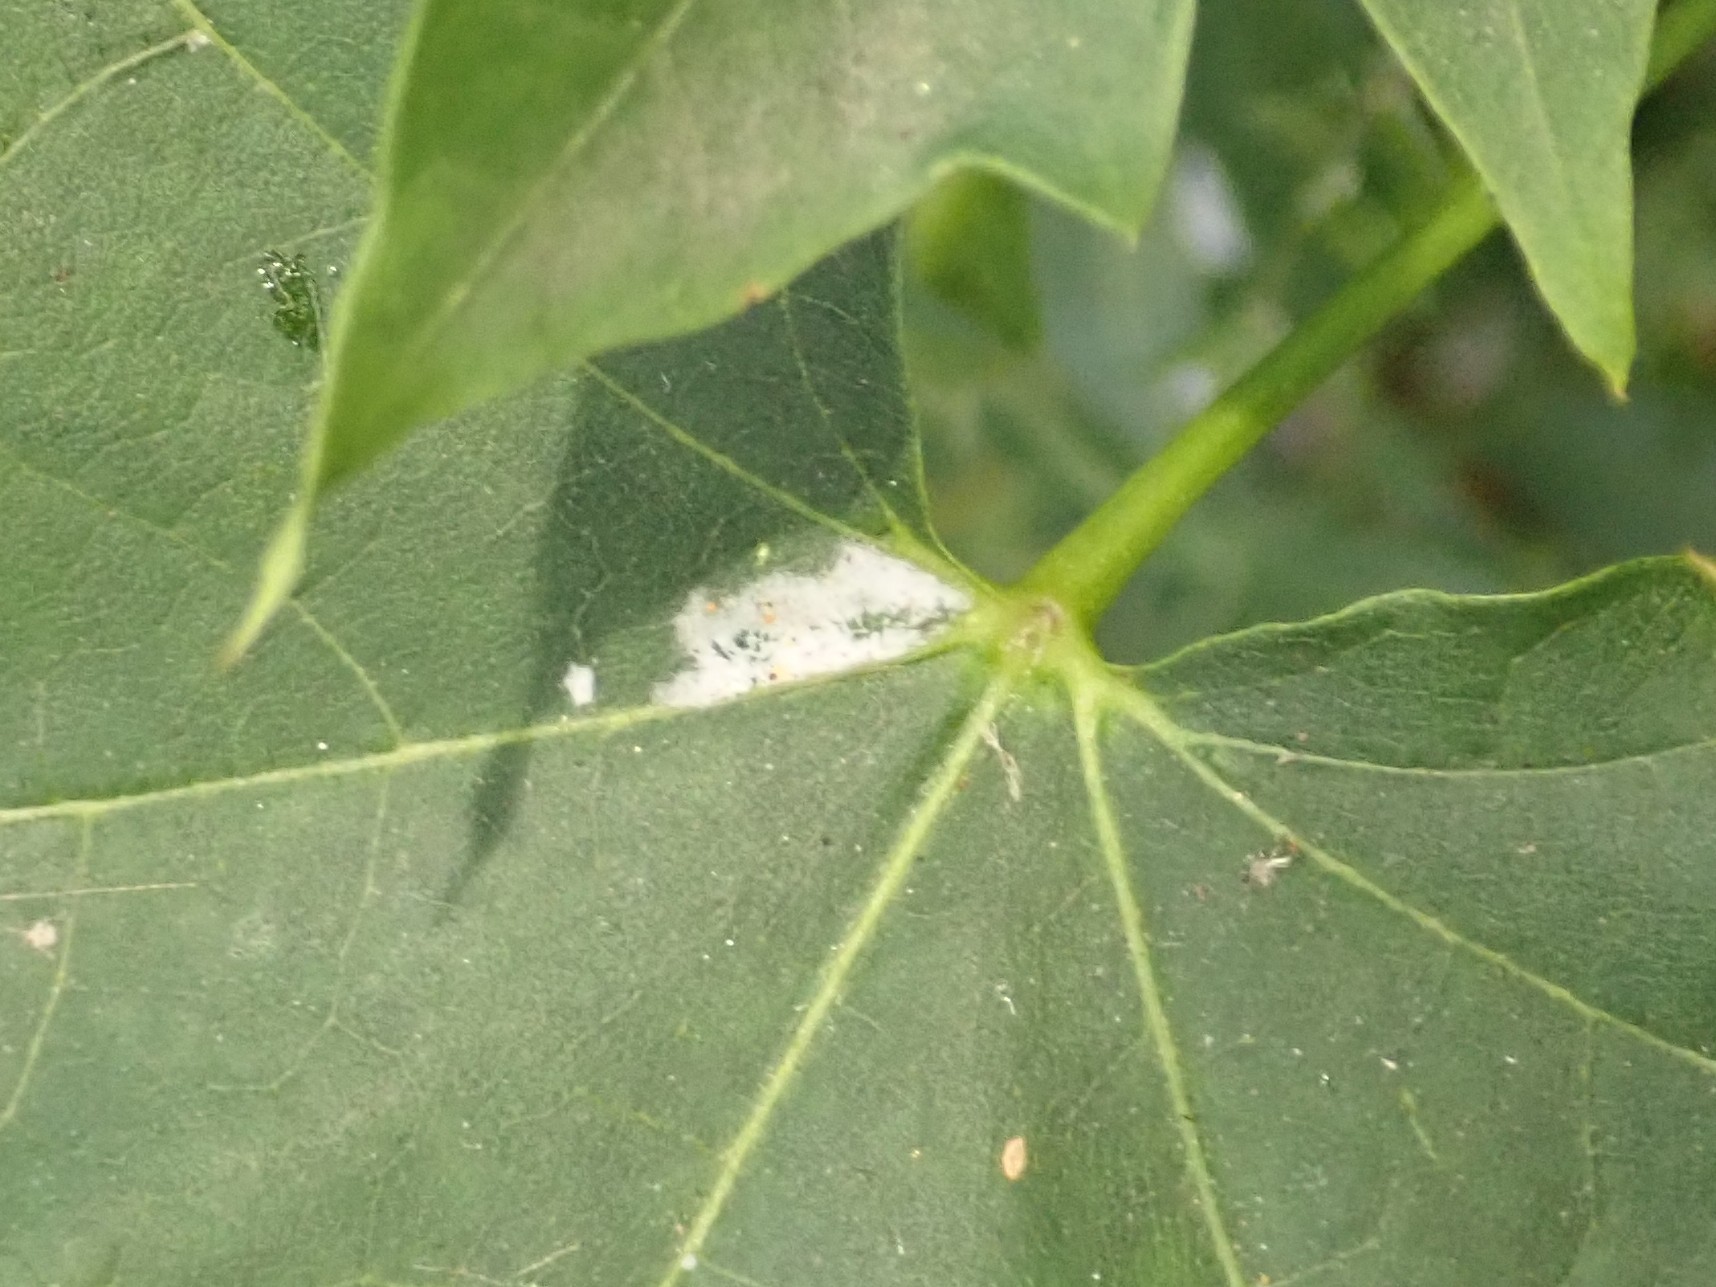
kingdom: Fungi
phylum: Ascomycota
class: Leotiomycetes
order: Helotiales
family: Erysiphaceae
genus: Sawadaea
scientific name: Sawadaea tulasnei
